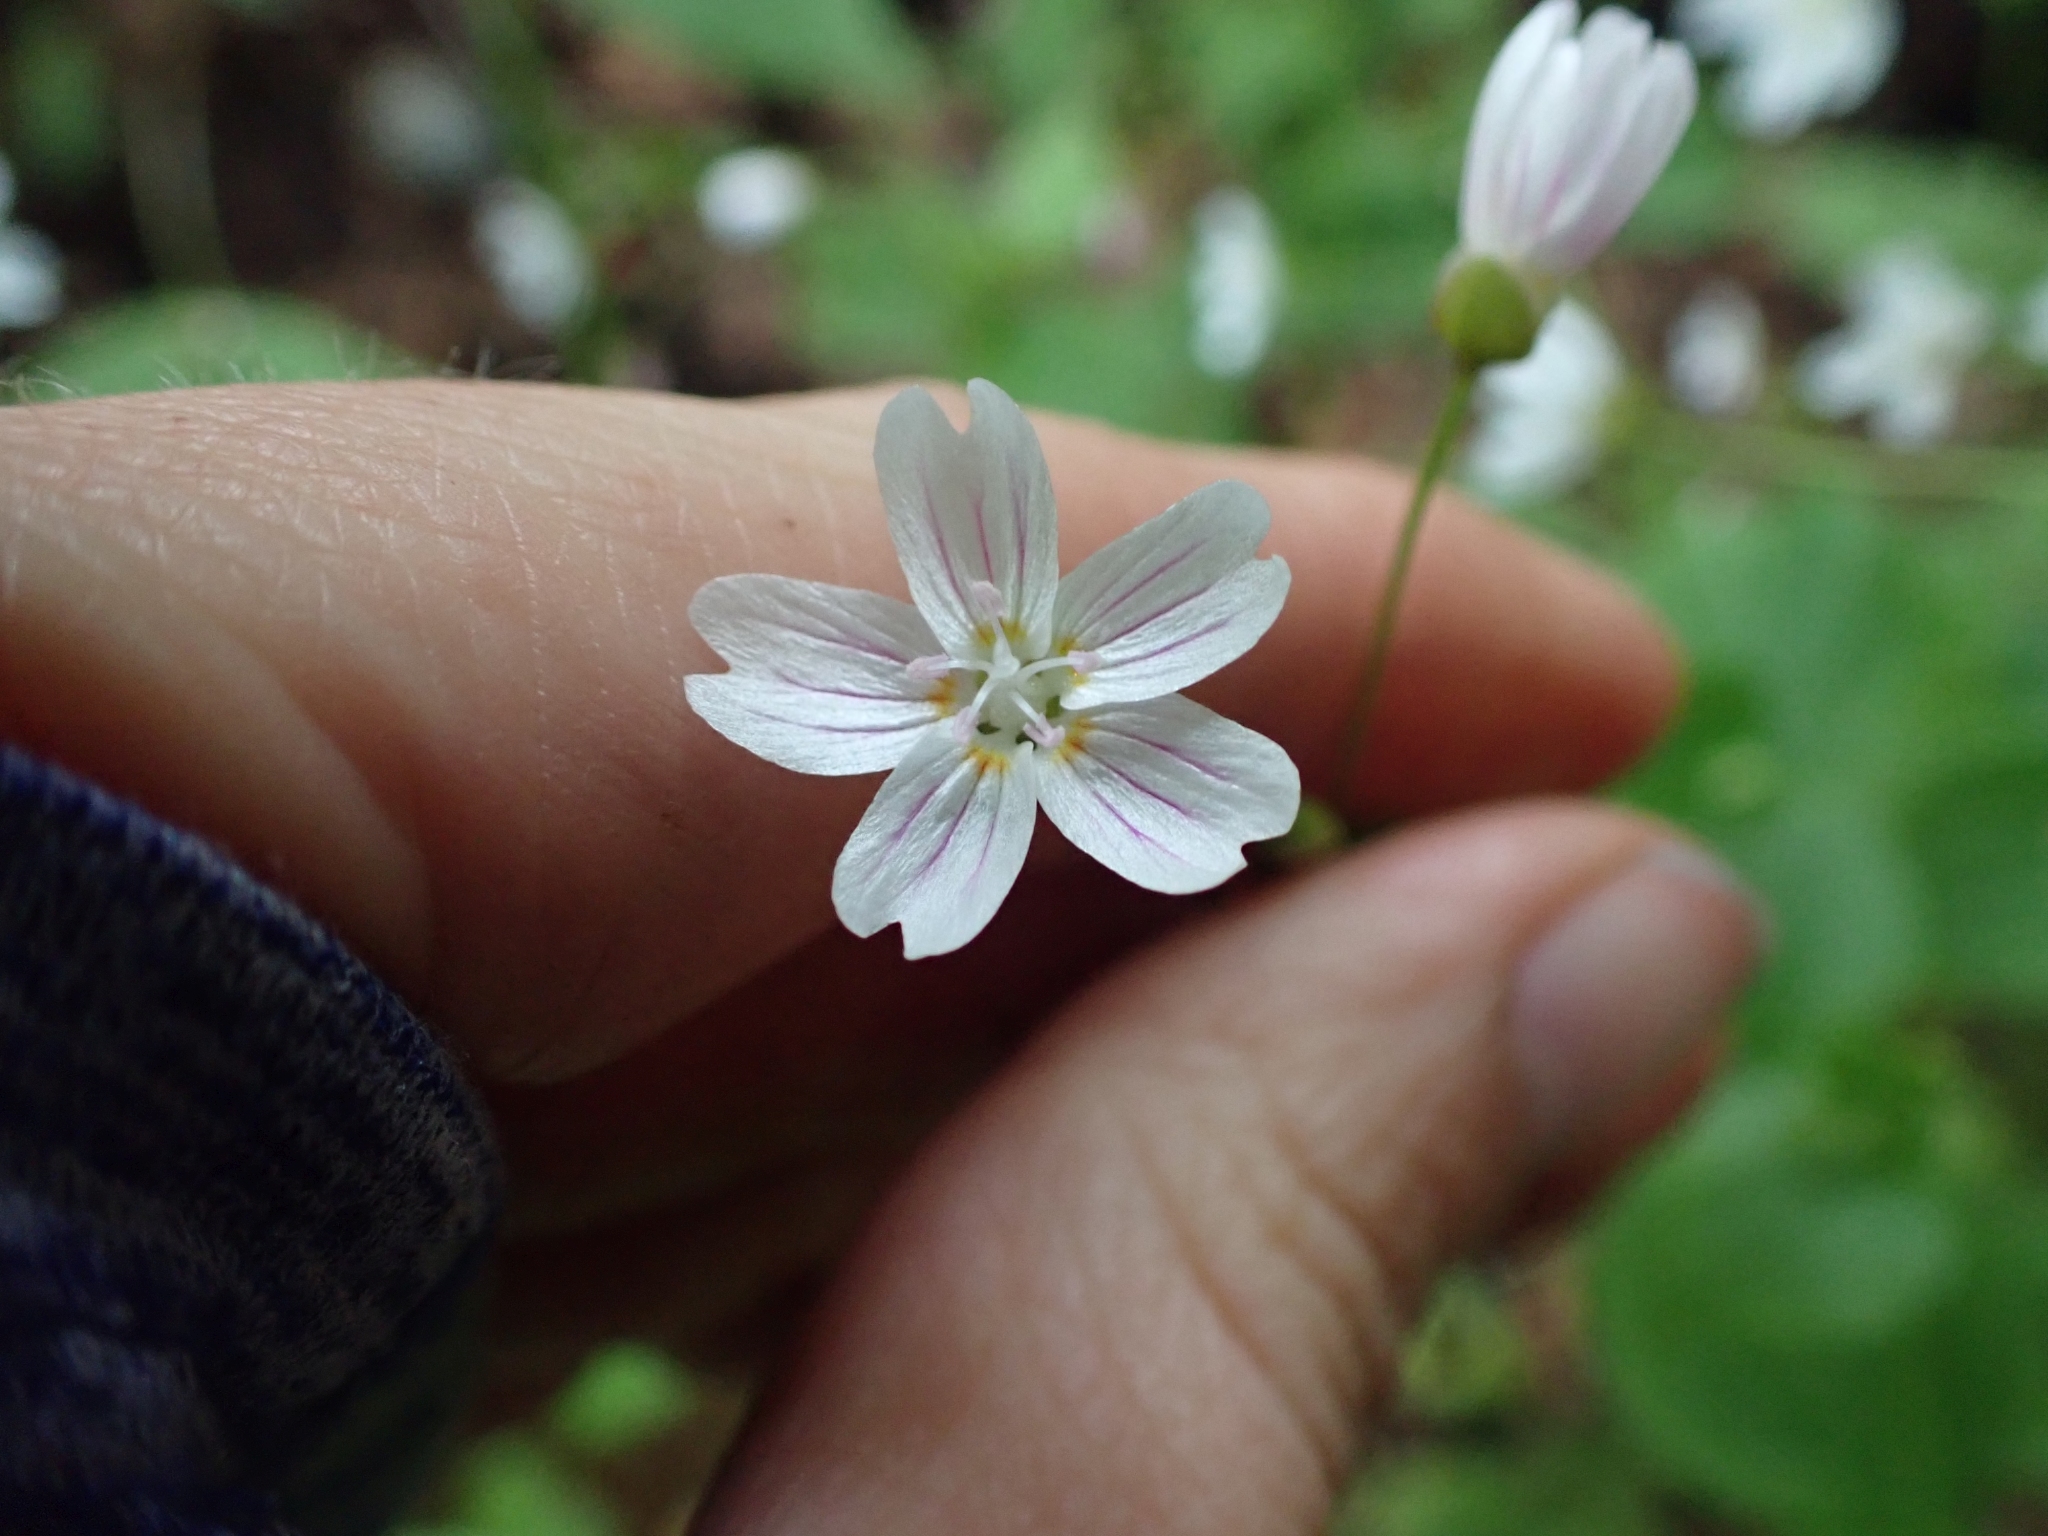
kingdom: Plantae
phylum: Tracheophyta
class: Magnoliopsida
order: Caryophyllales
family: Montiaceae
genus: Claytonia
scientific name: Claytonia sibirica
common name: Pink purslane
